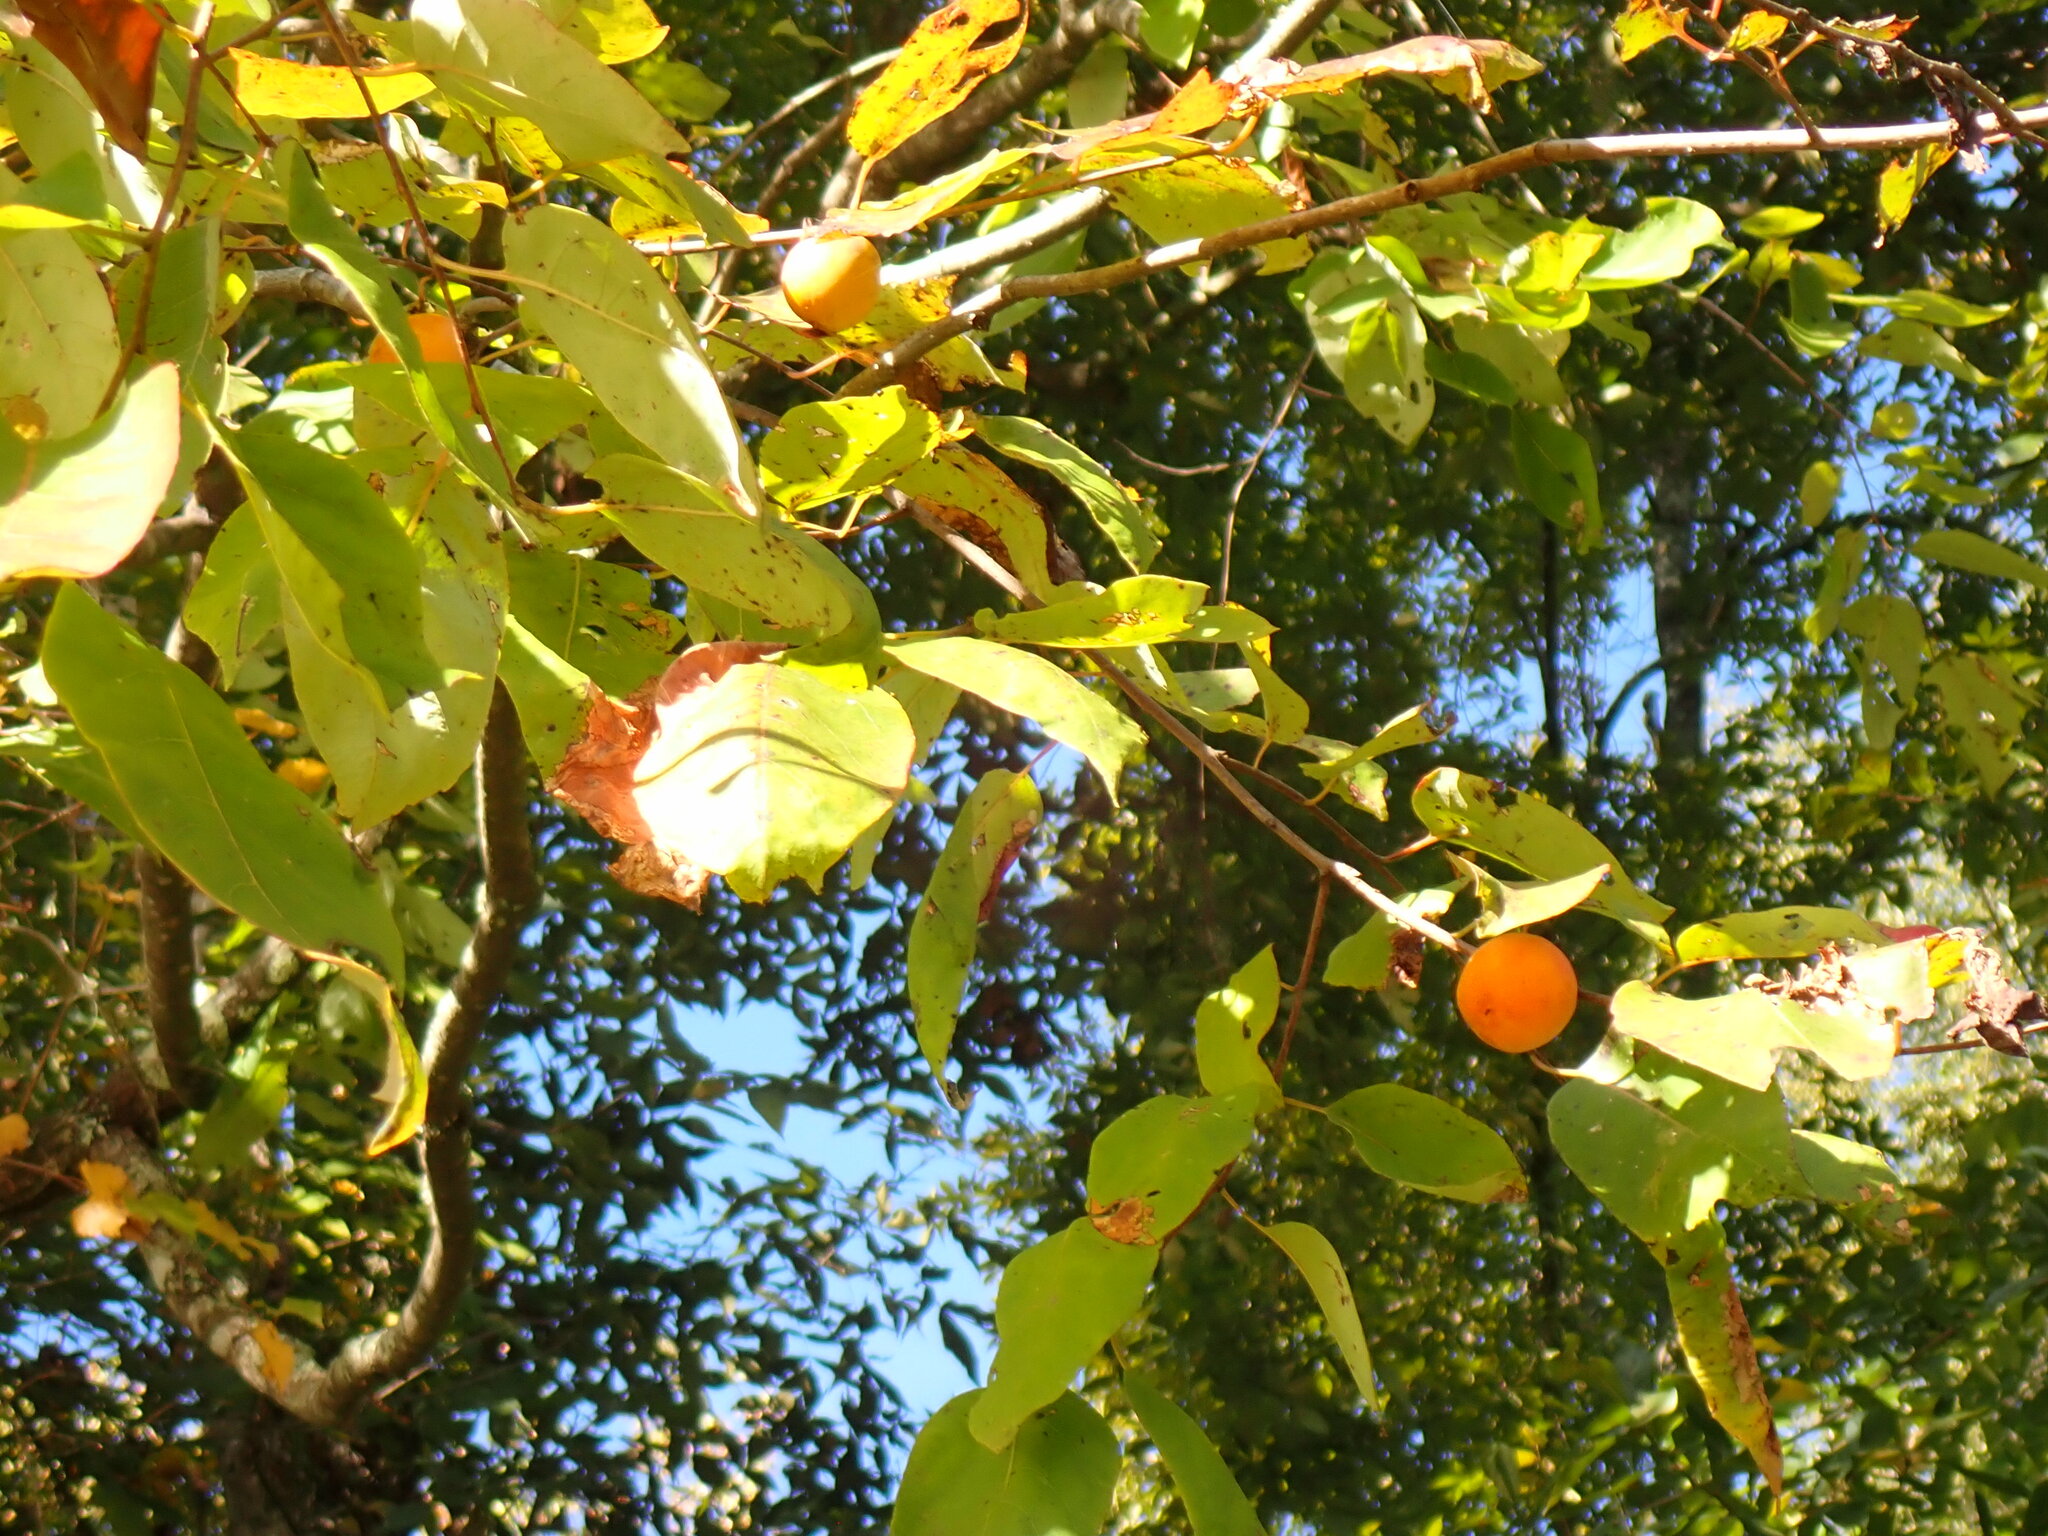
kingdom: Plantae
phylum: Tracheophyta
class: Magnoliopsida
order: Ericales
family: Ebenaceae
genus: Diospyros
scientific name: Diospyros virginiana
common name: Persimmon
